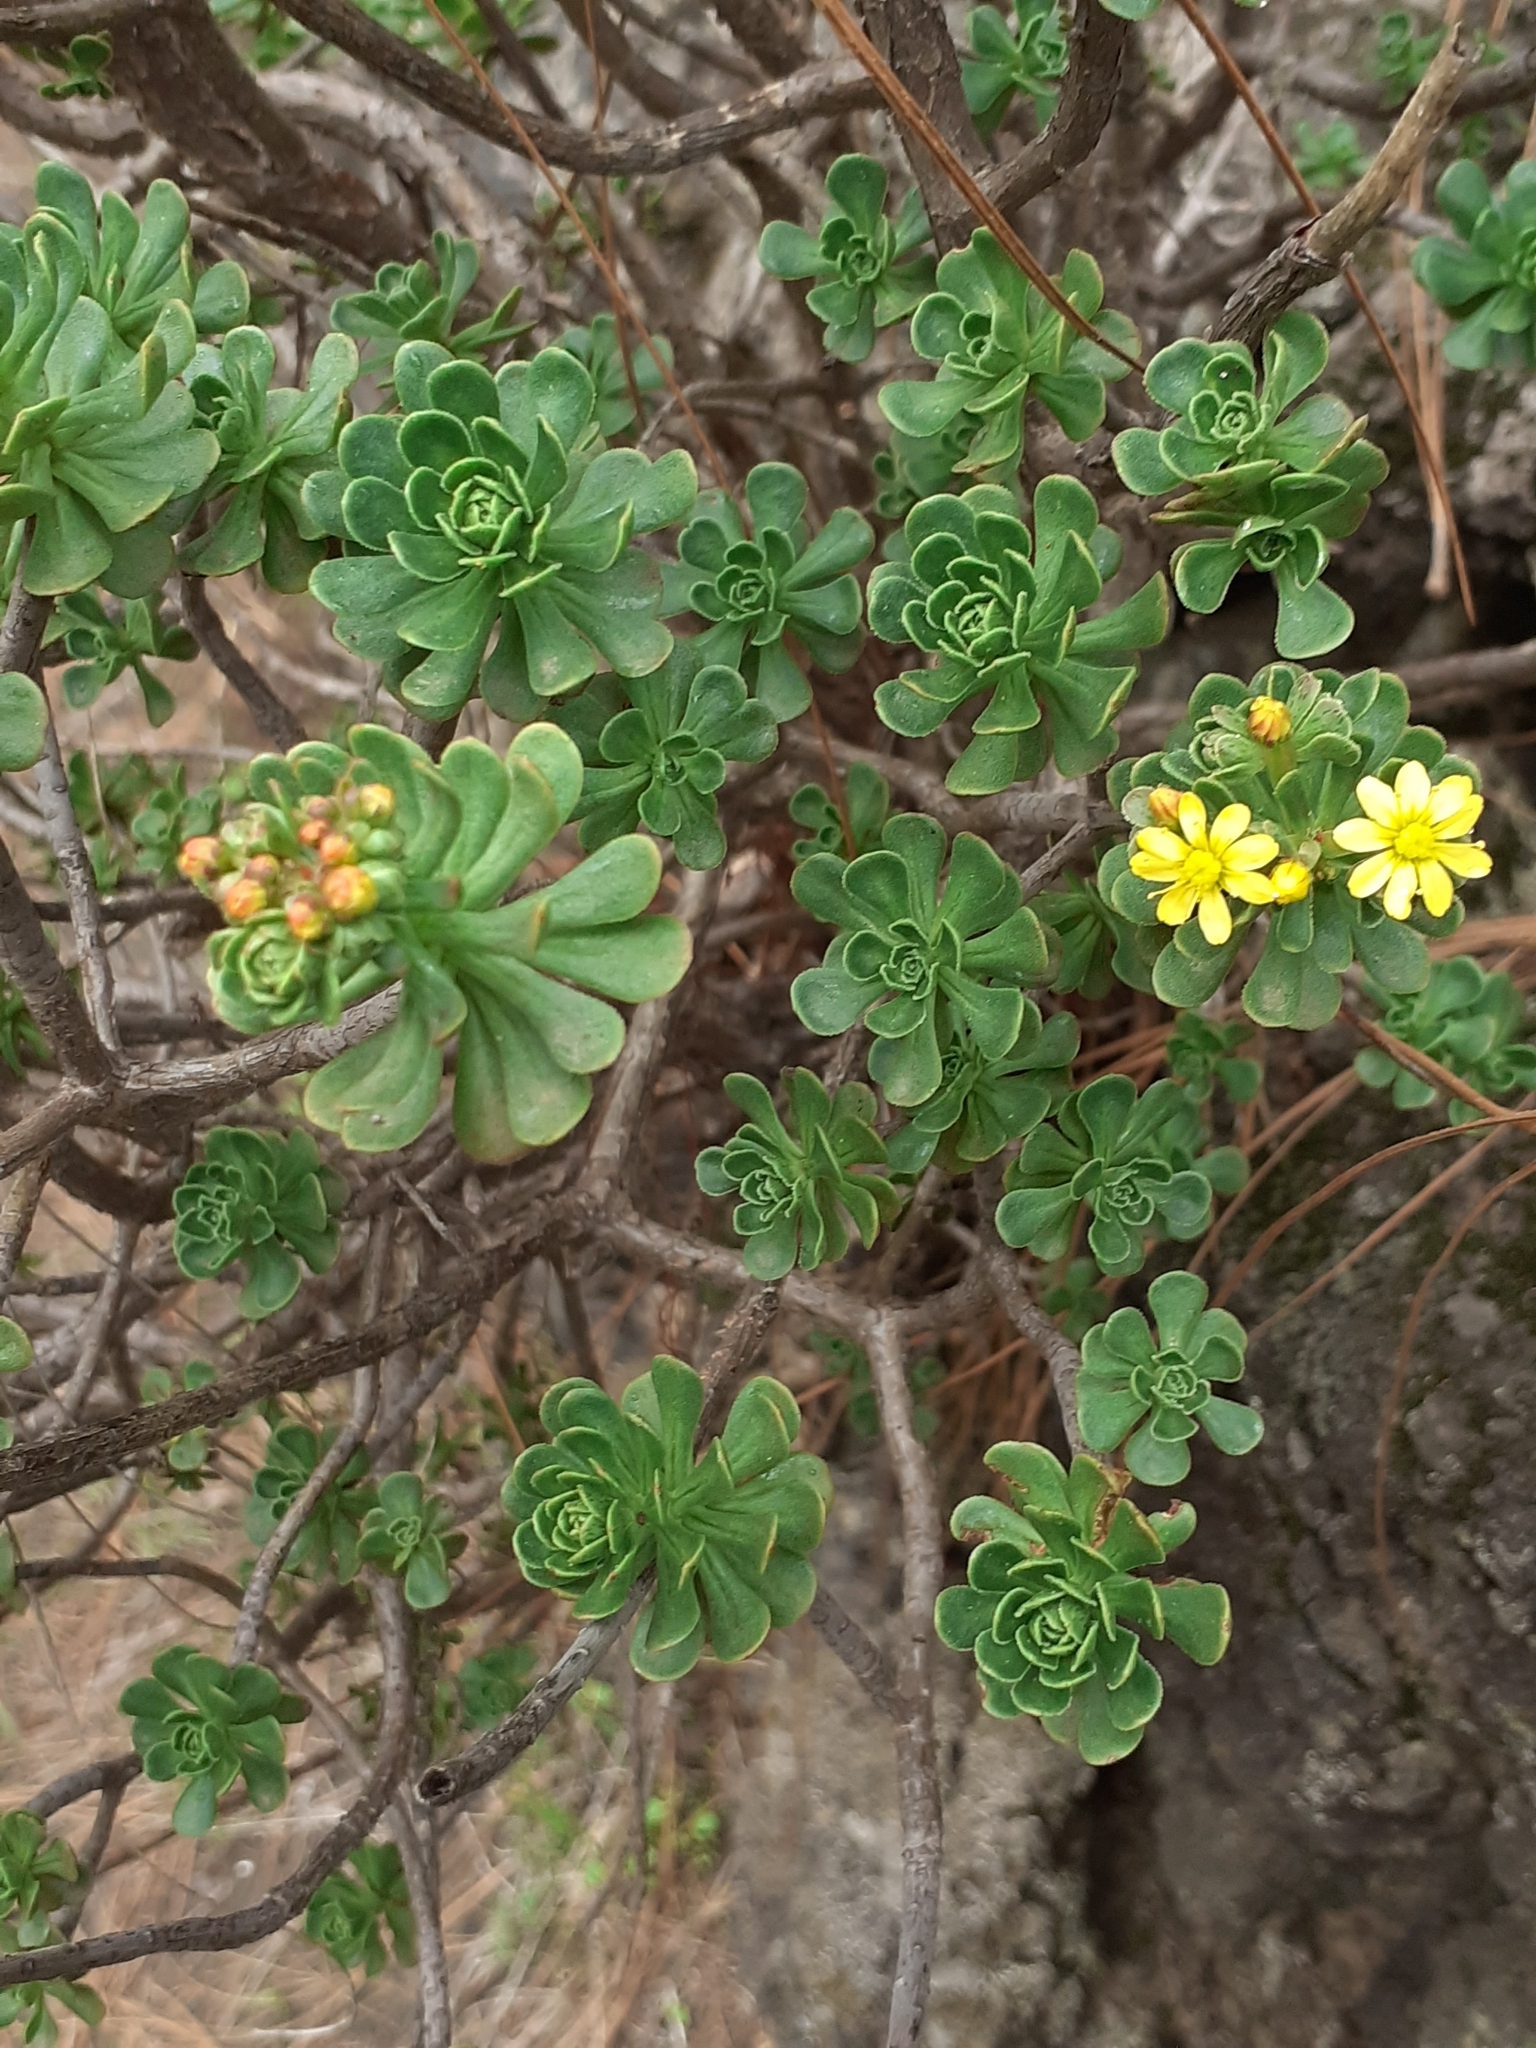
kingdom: Plantae
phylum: Tracheophyta
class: Magnoliopsida
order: Saxifragales
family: Crassulaceae
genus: Aeonium
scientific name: Aeonium spathulatum
